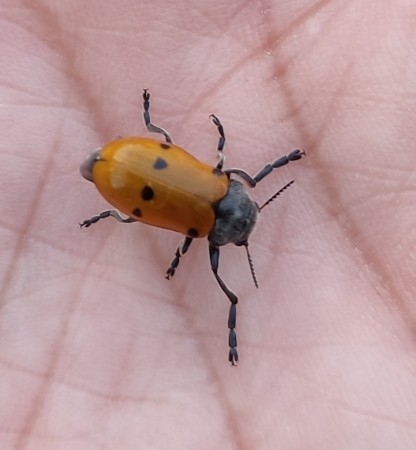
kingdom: Animalia
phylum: Arthropoda
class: Insecta
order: Coleoptera
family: Chrysomelidae
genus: Lachnaia
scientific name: Lachnaia italica
